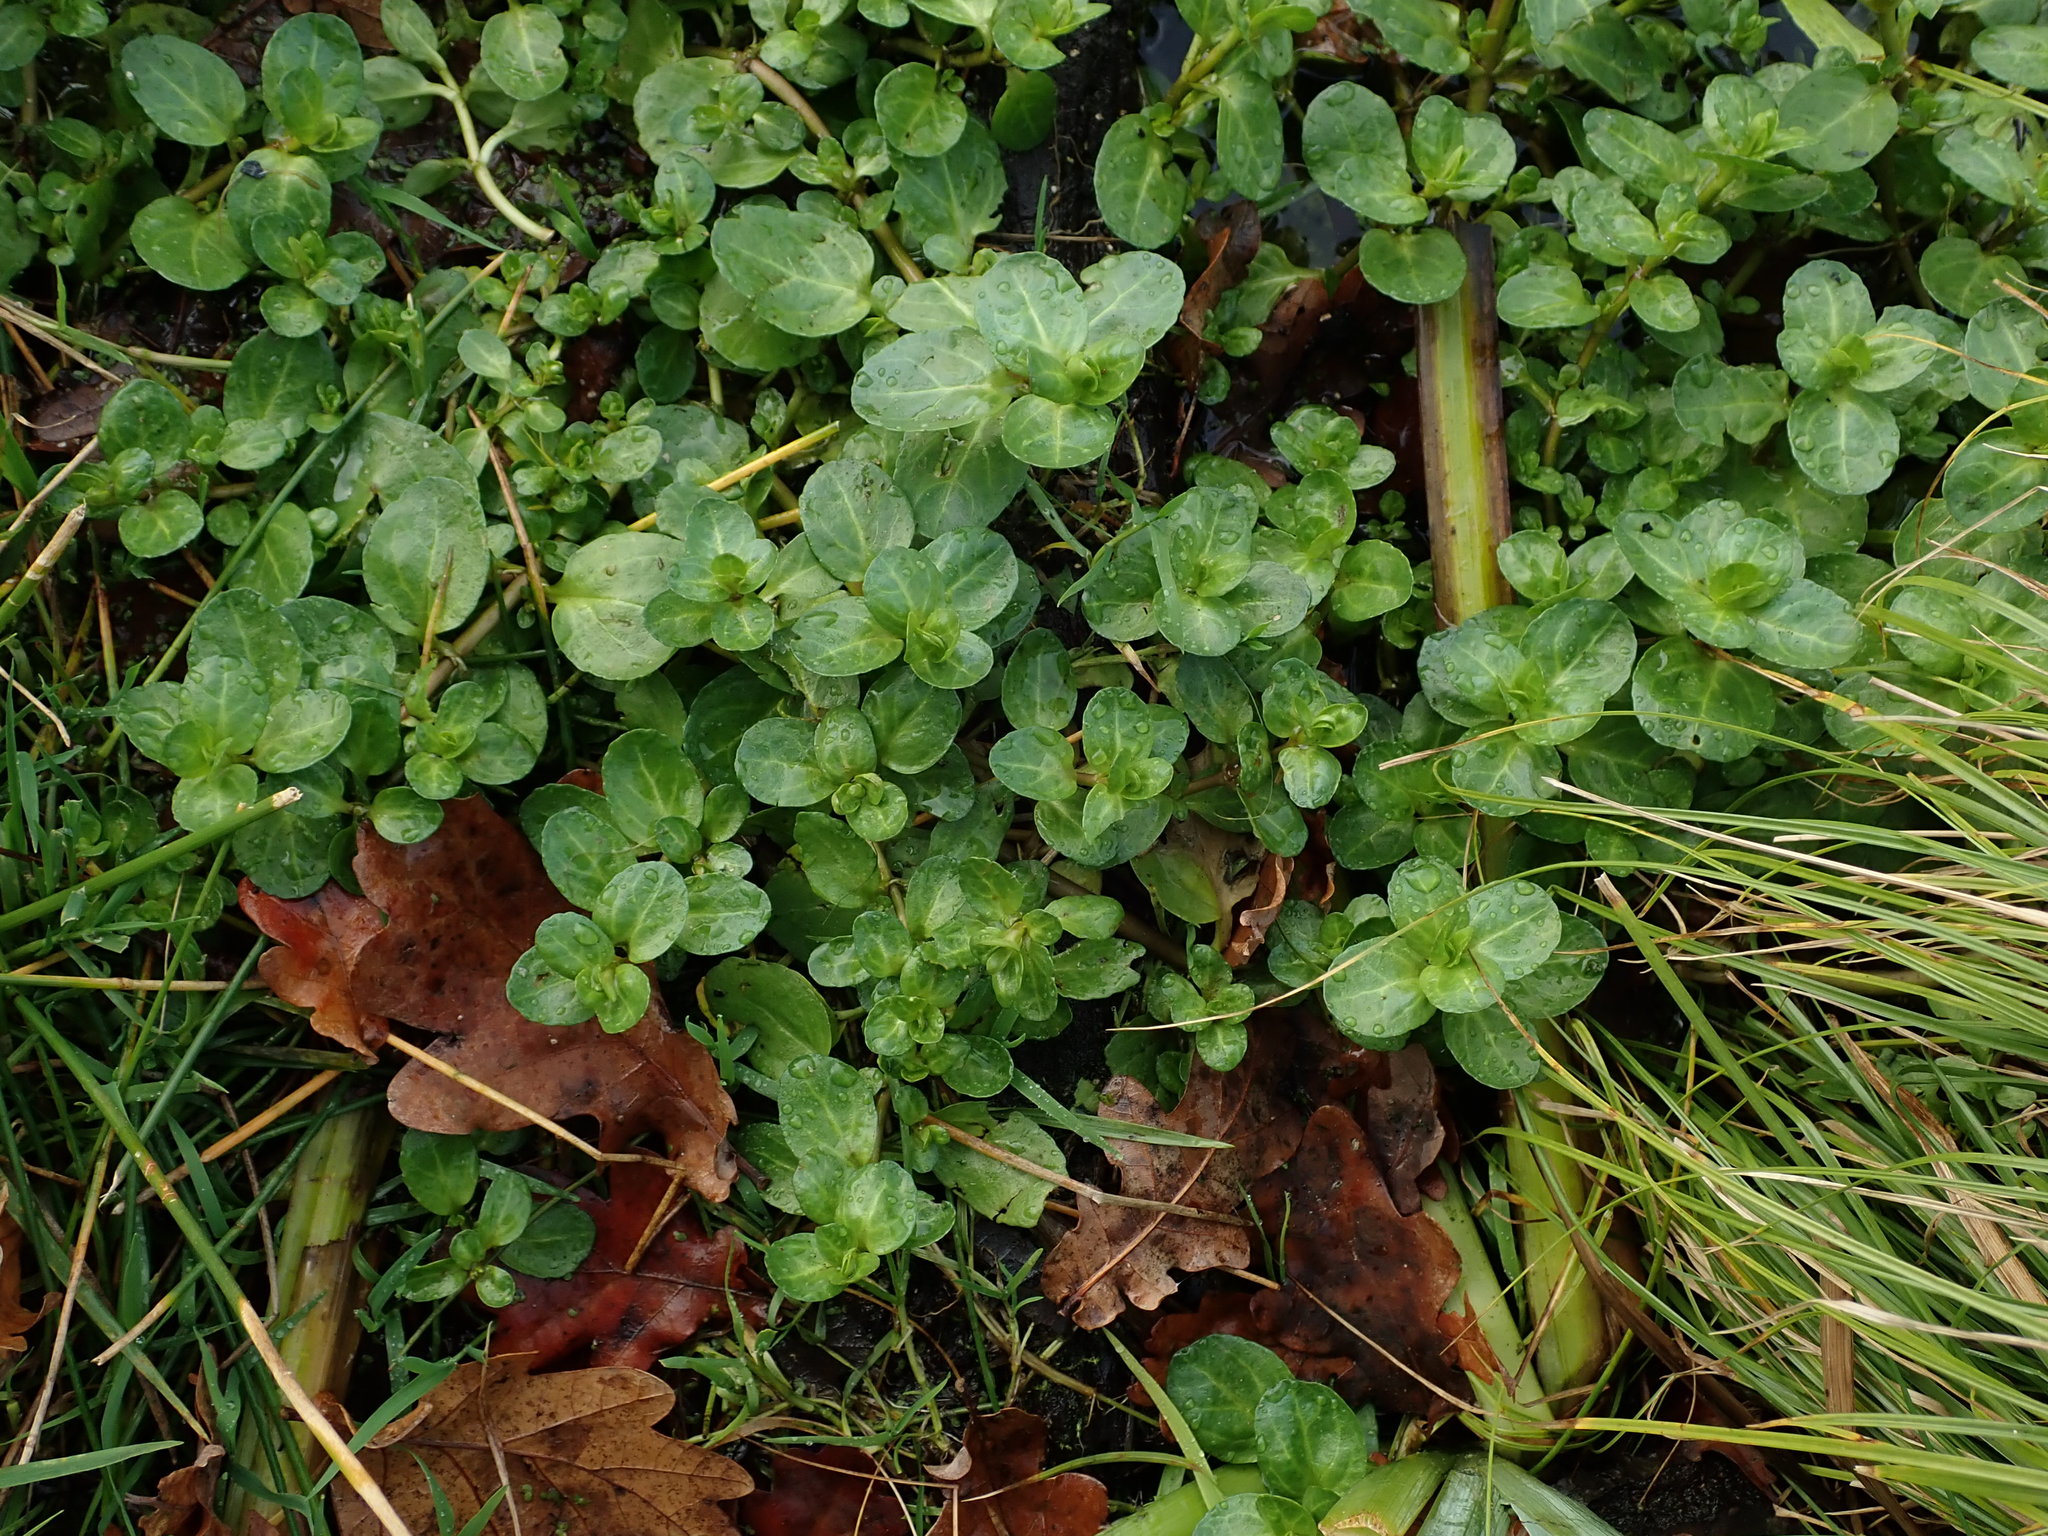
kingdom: Plantae
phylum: Tracheophyta
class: Magnoliopsida
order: Lamiales
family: Plantaginaceae
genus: Veronica
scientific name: Veronica beccabunga
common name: Brooklime
